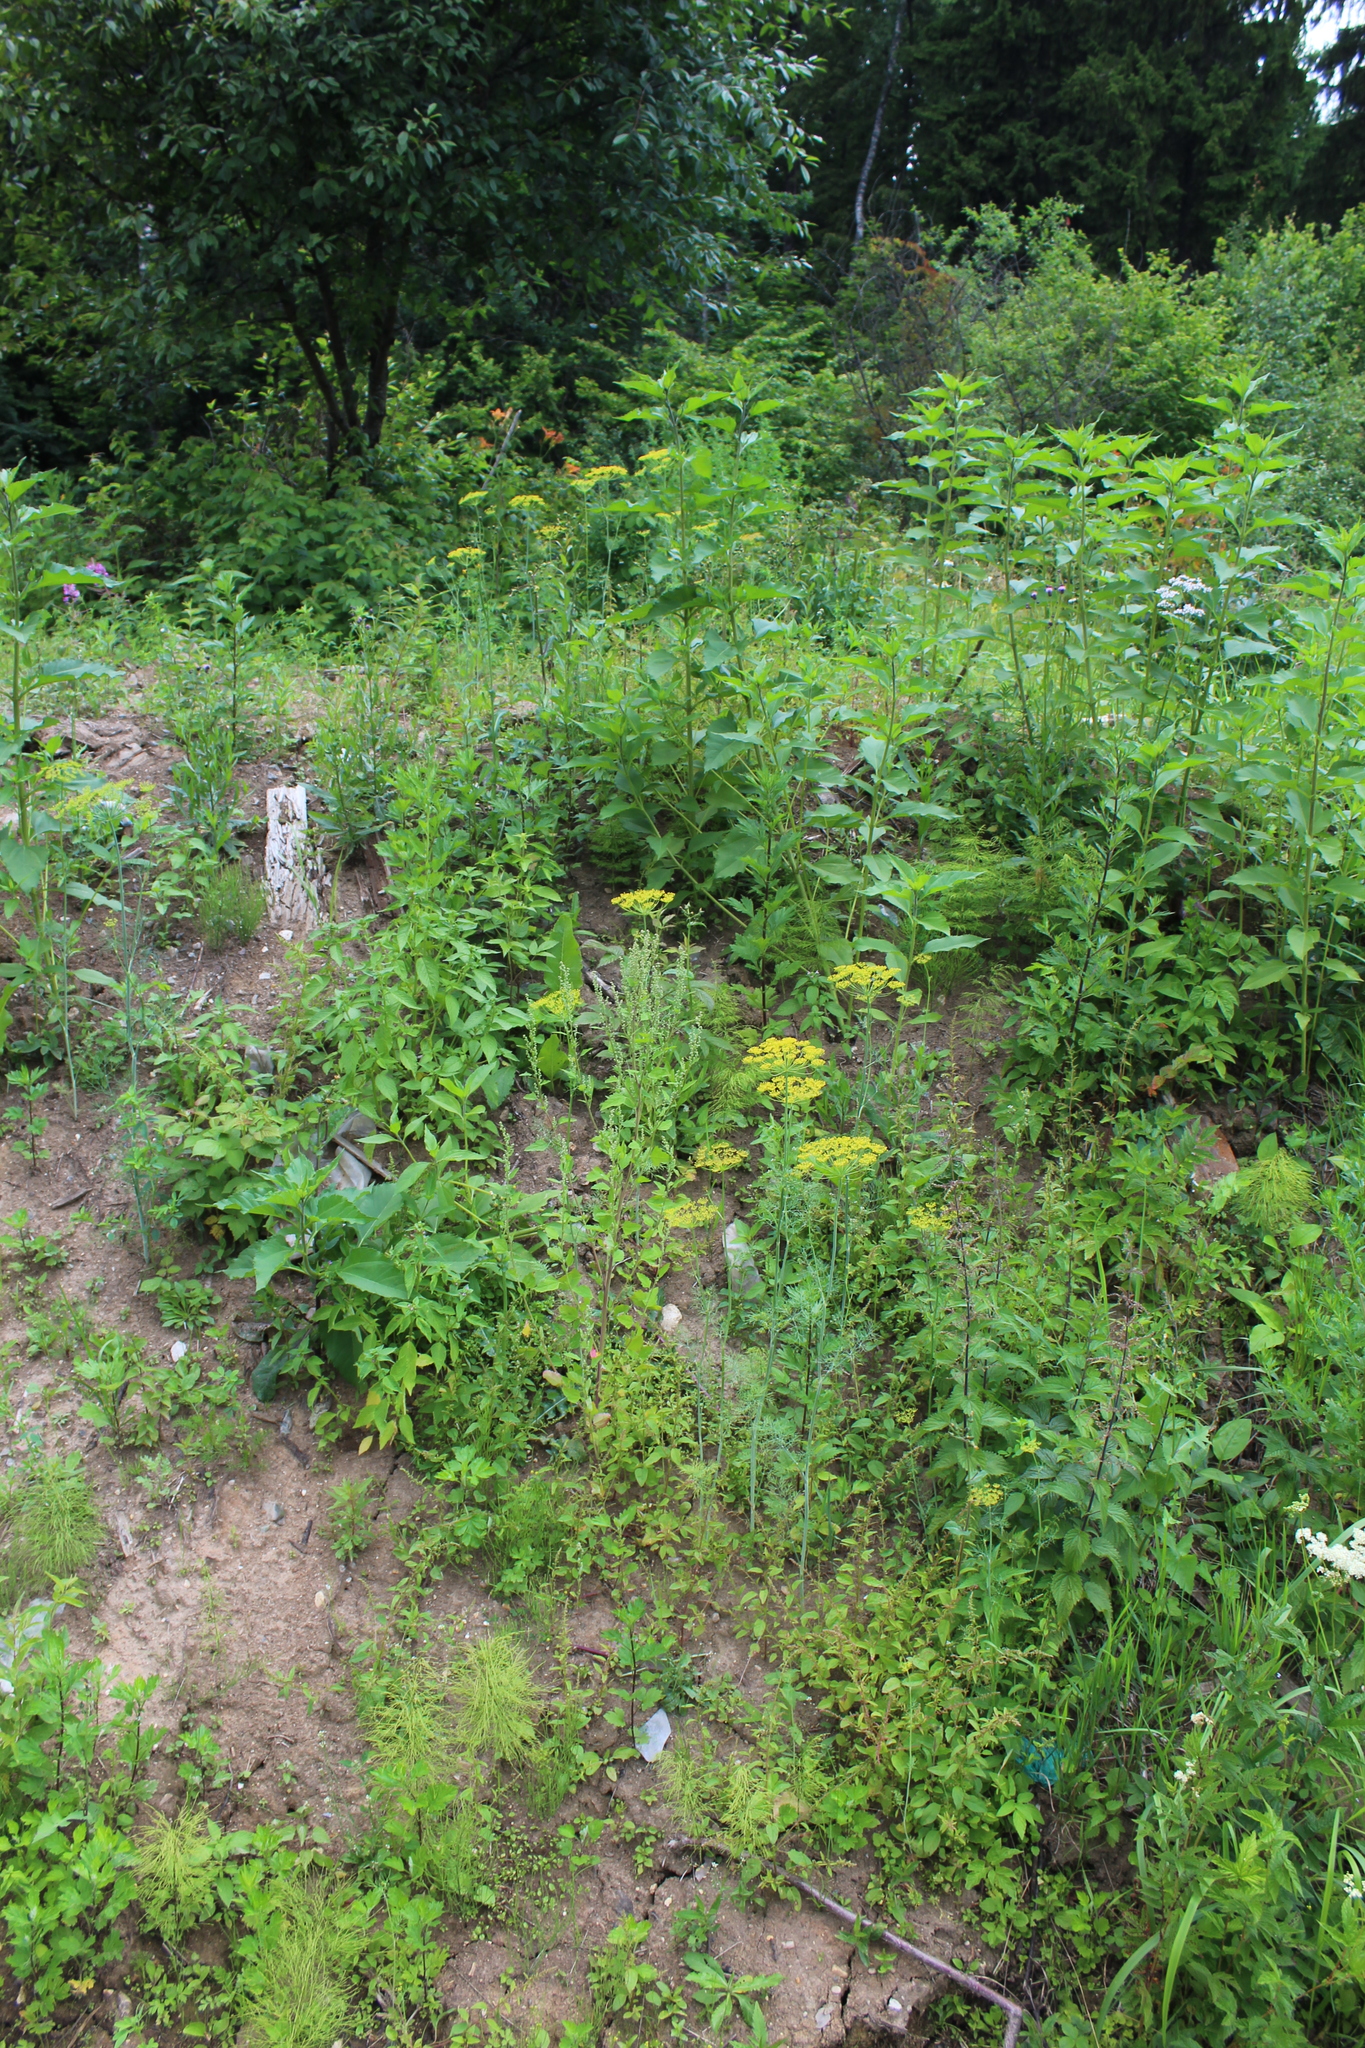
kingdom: Plantae
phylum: Tracheophyta
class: Magnoliopsida
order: Apiales
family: Apiaceae
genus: Anethum
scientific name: Anethum graveolens
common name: Dill
